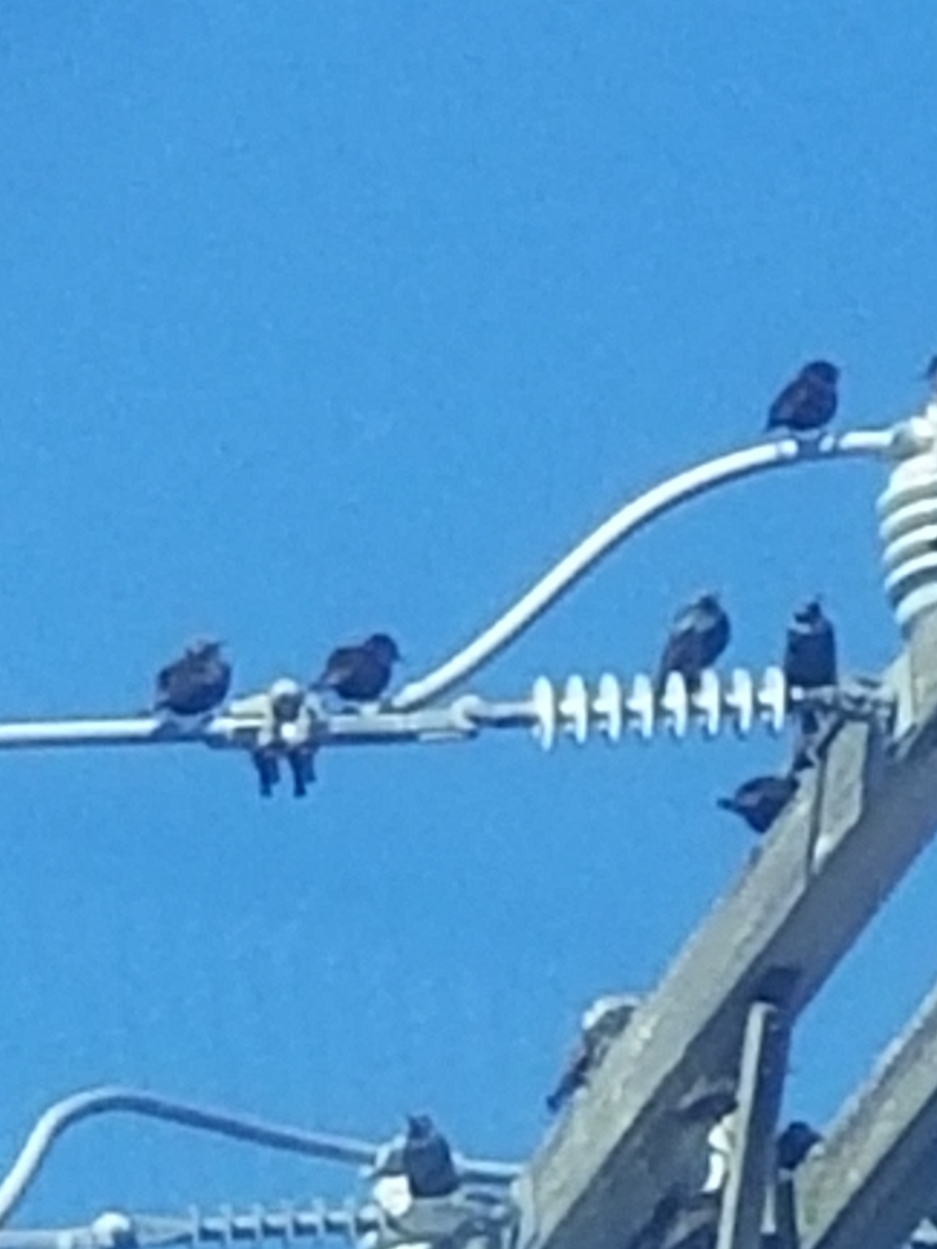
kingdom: Animalia
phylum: Chordata
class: Aves
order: Passeriformes
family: Sturnidae
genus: Sturnus
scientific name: Sturnus vulgaris
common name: Common starling
